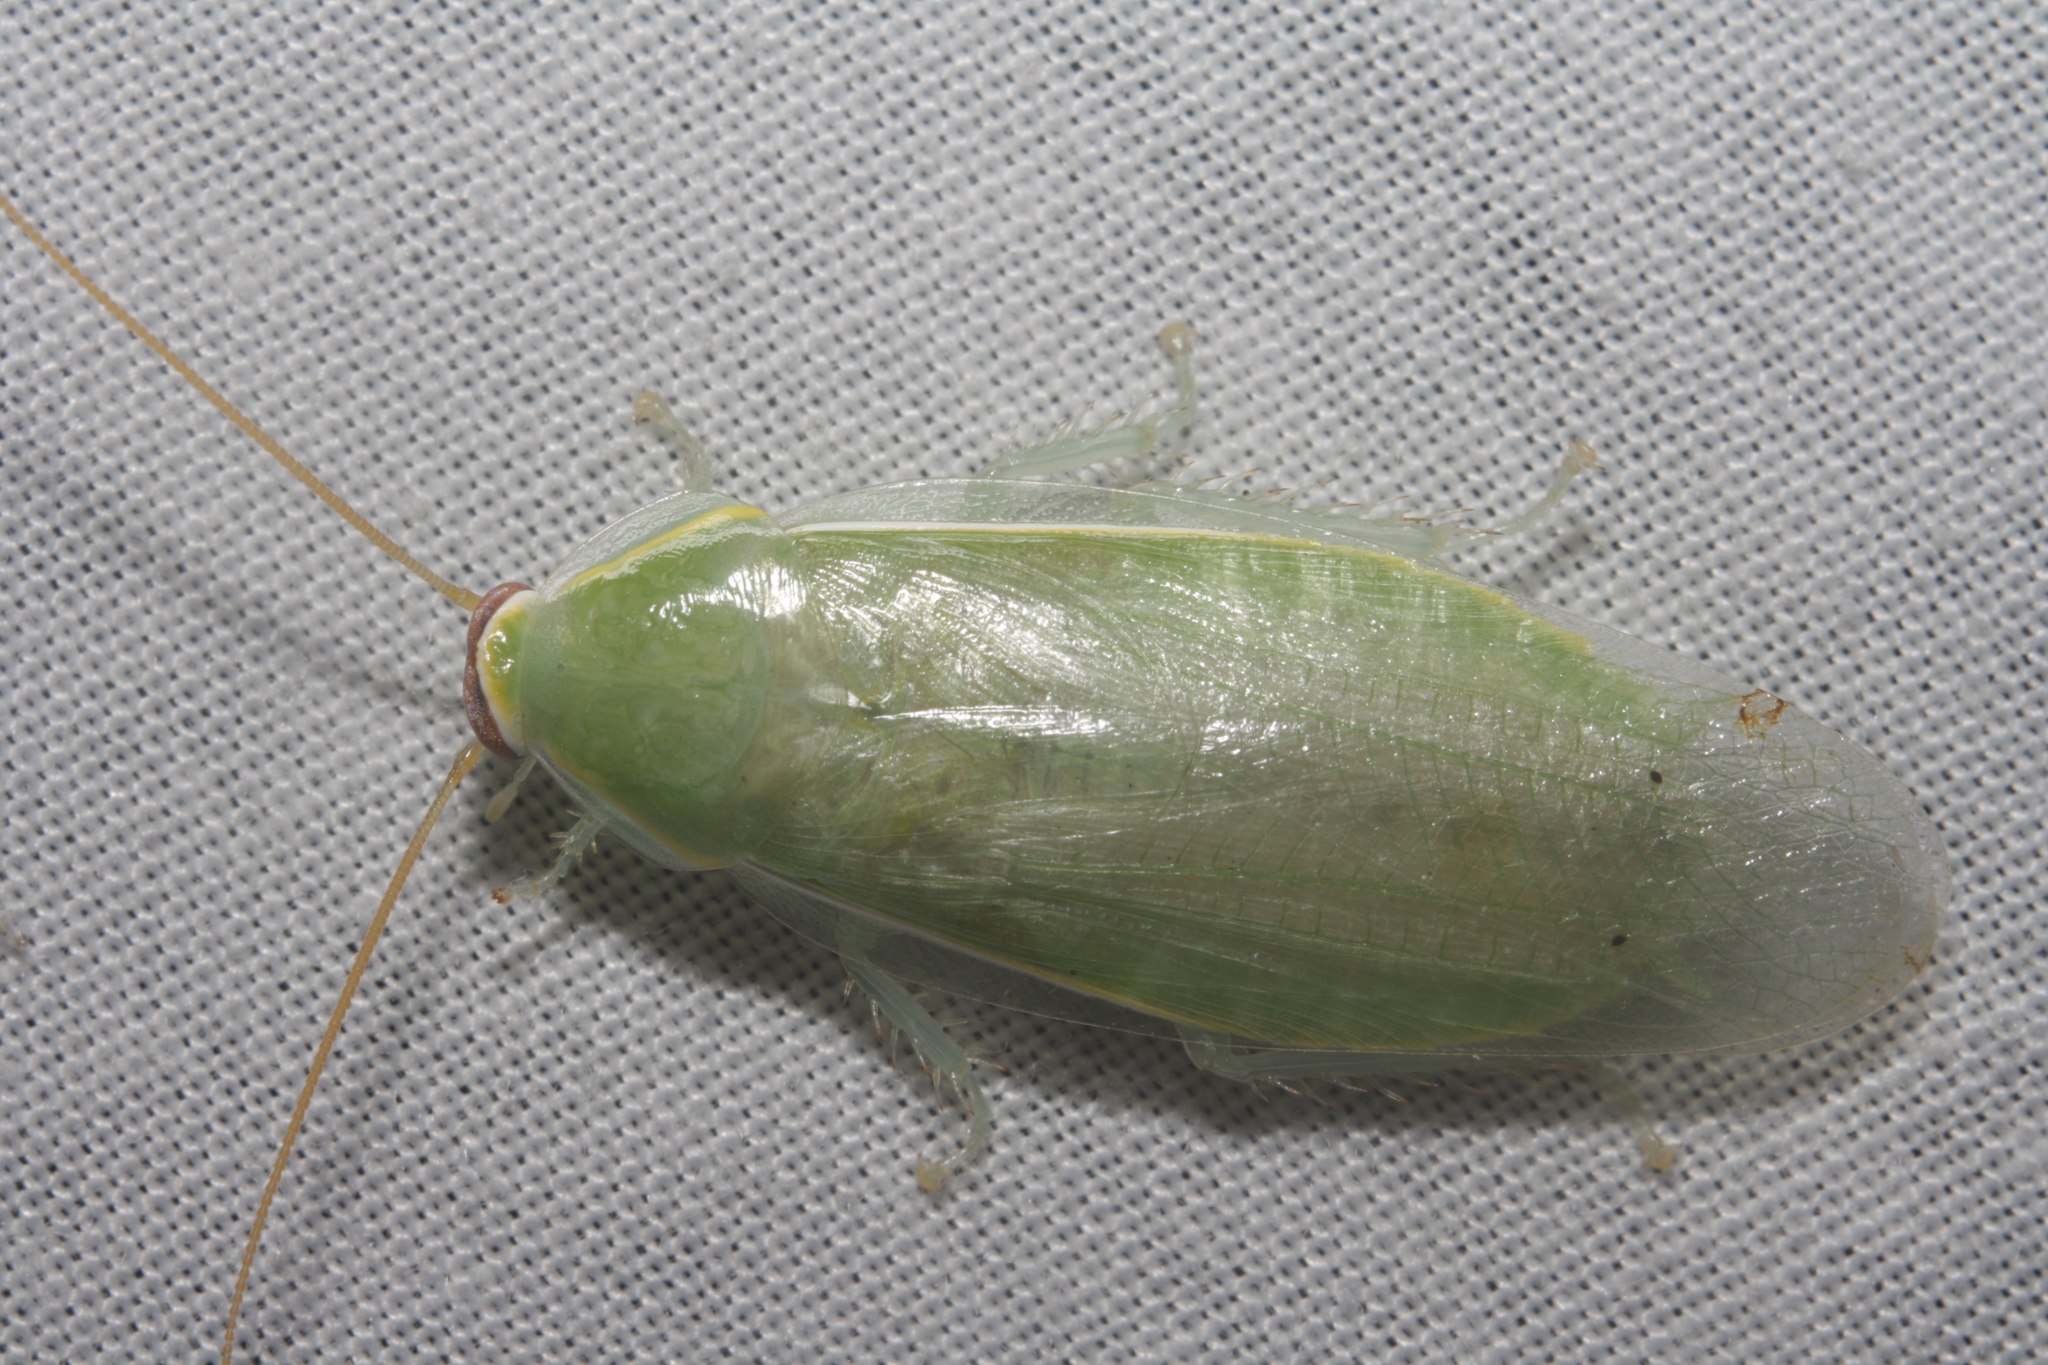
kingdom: Animalia
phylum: Arthropoda
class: Insecta
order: Blattodea
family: Blaberidae
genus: Panchlora
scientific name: Panchlora nivea
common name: Cuban cockroach
